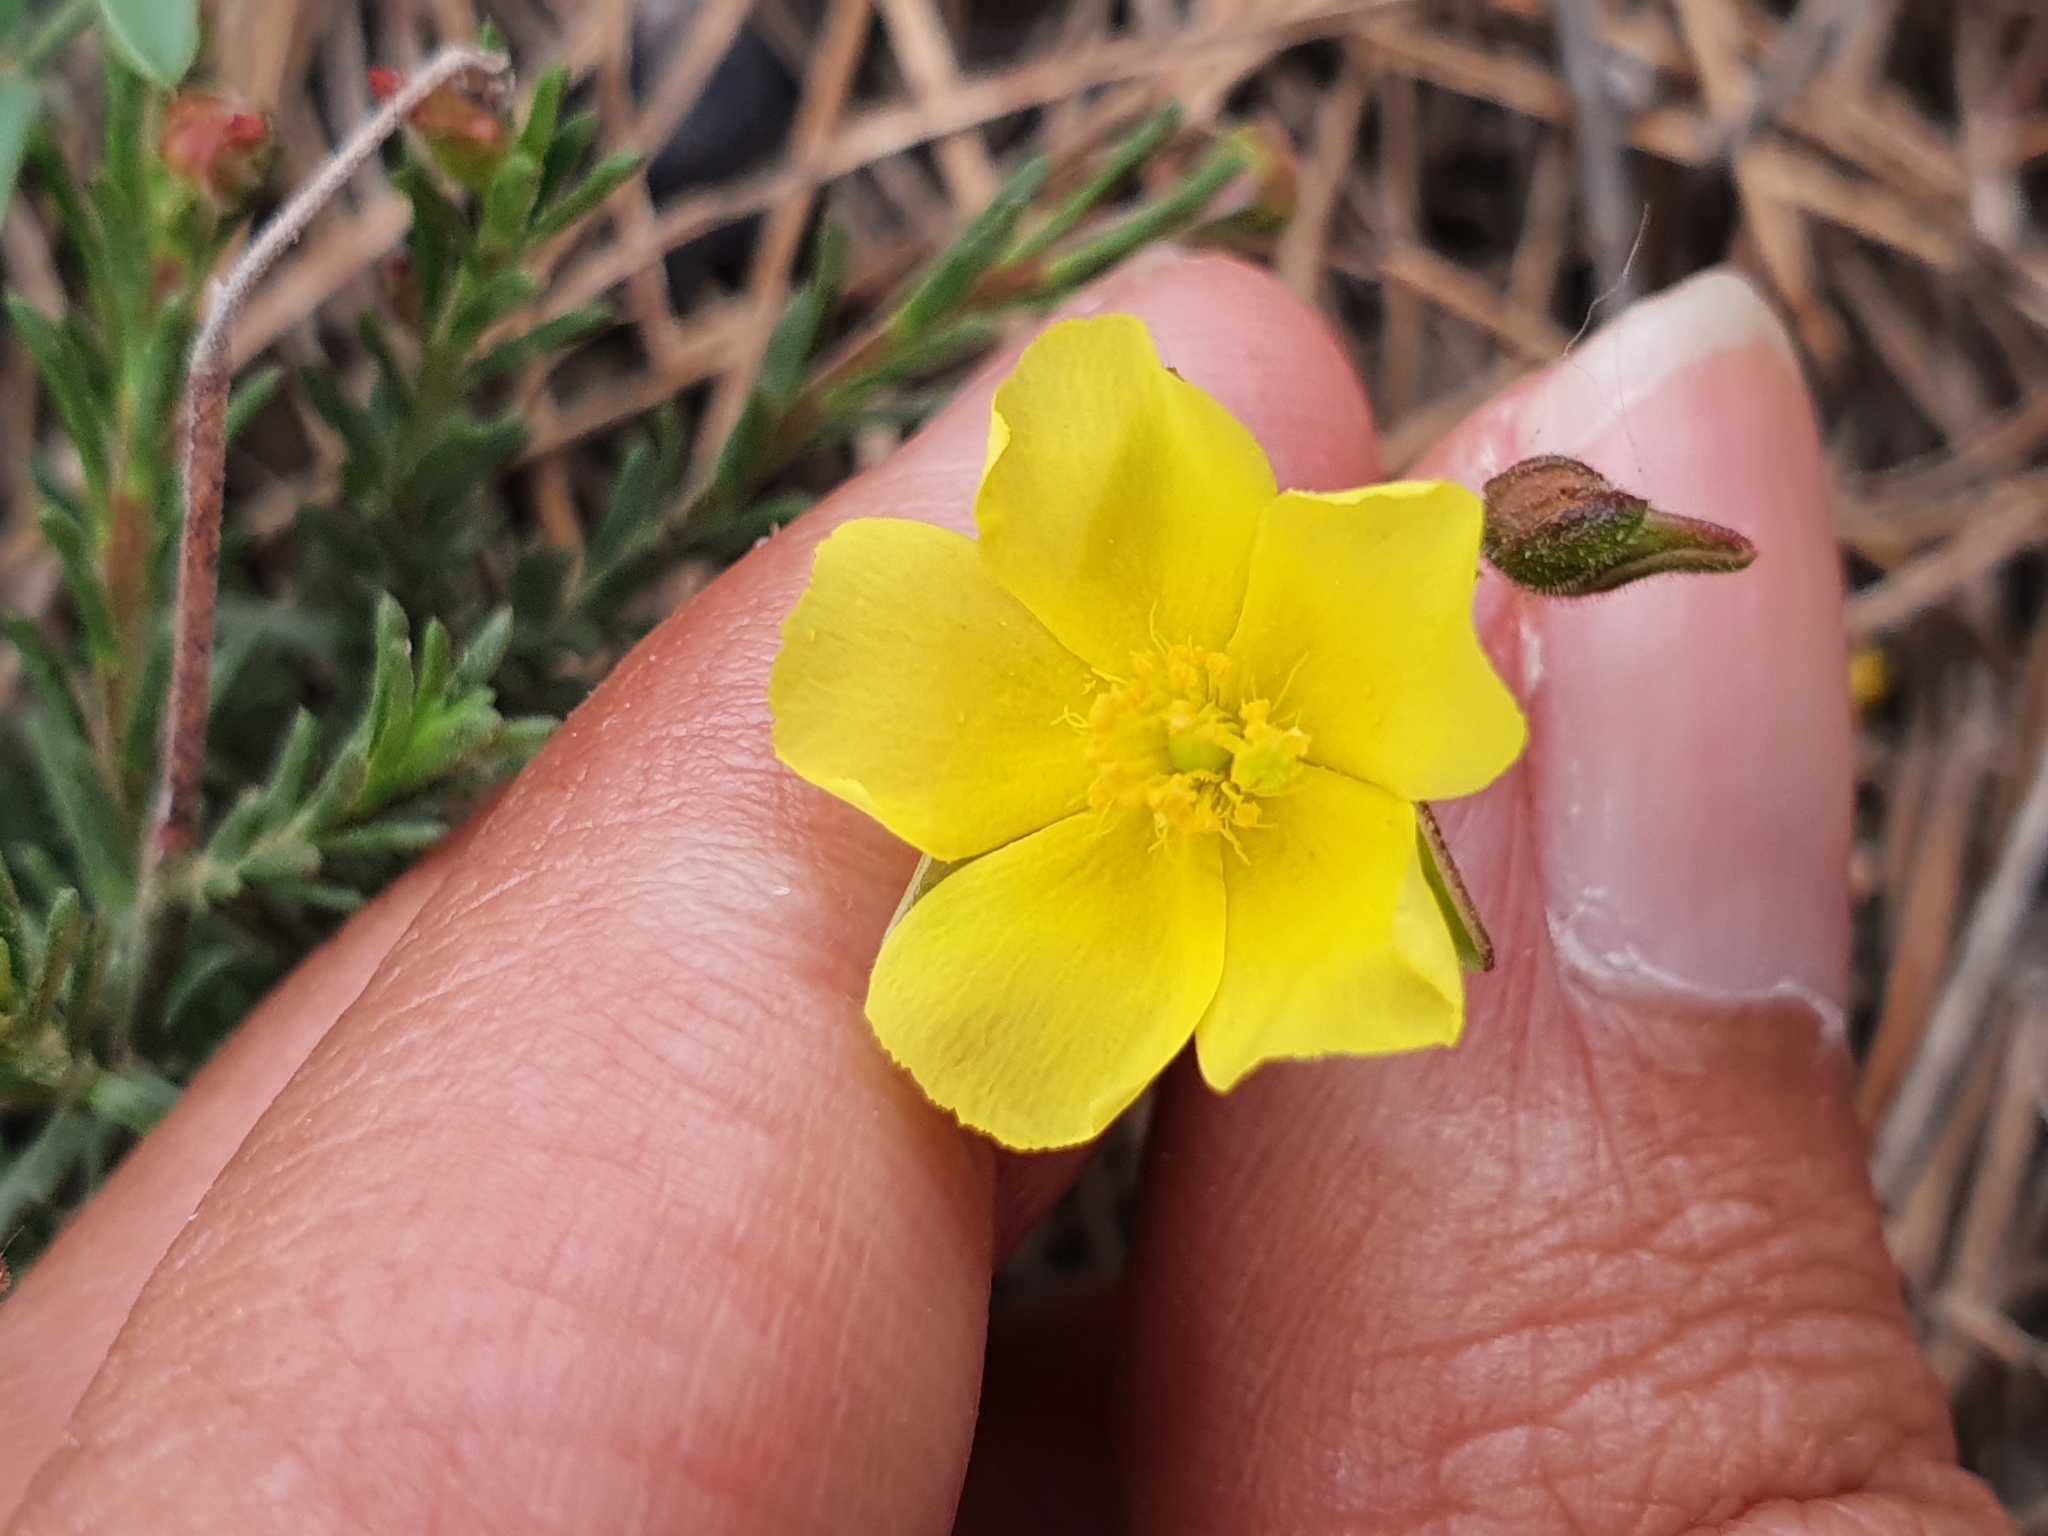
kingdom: Plantae
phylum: Tracheophyta
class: Magnoliopsida
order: Malvales
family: Cistaceae
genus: Fumana
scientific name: Fumana scoparia
